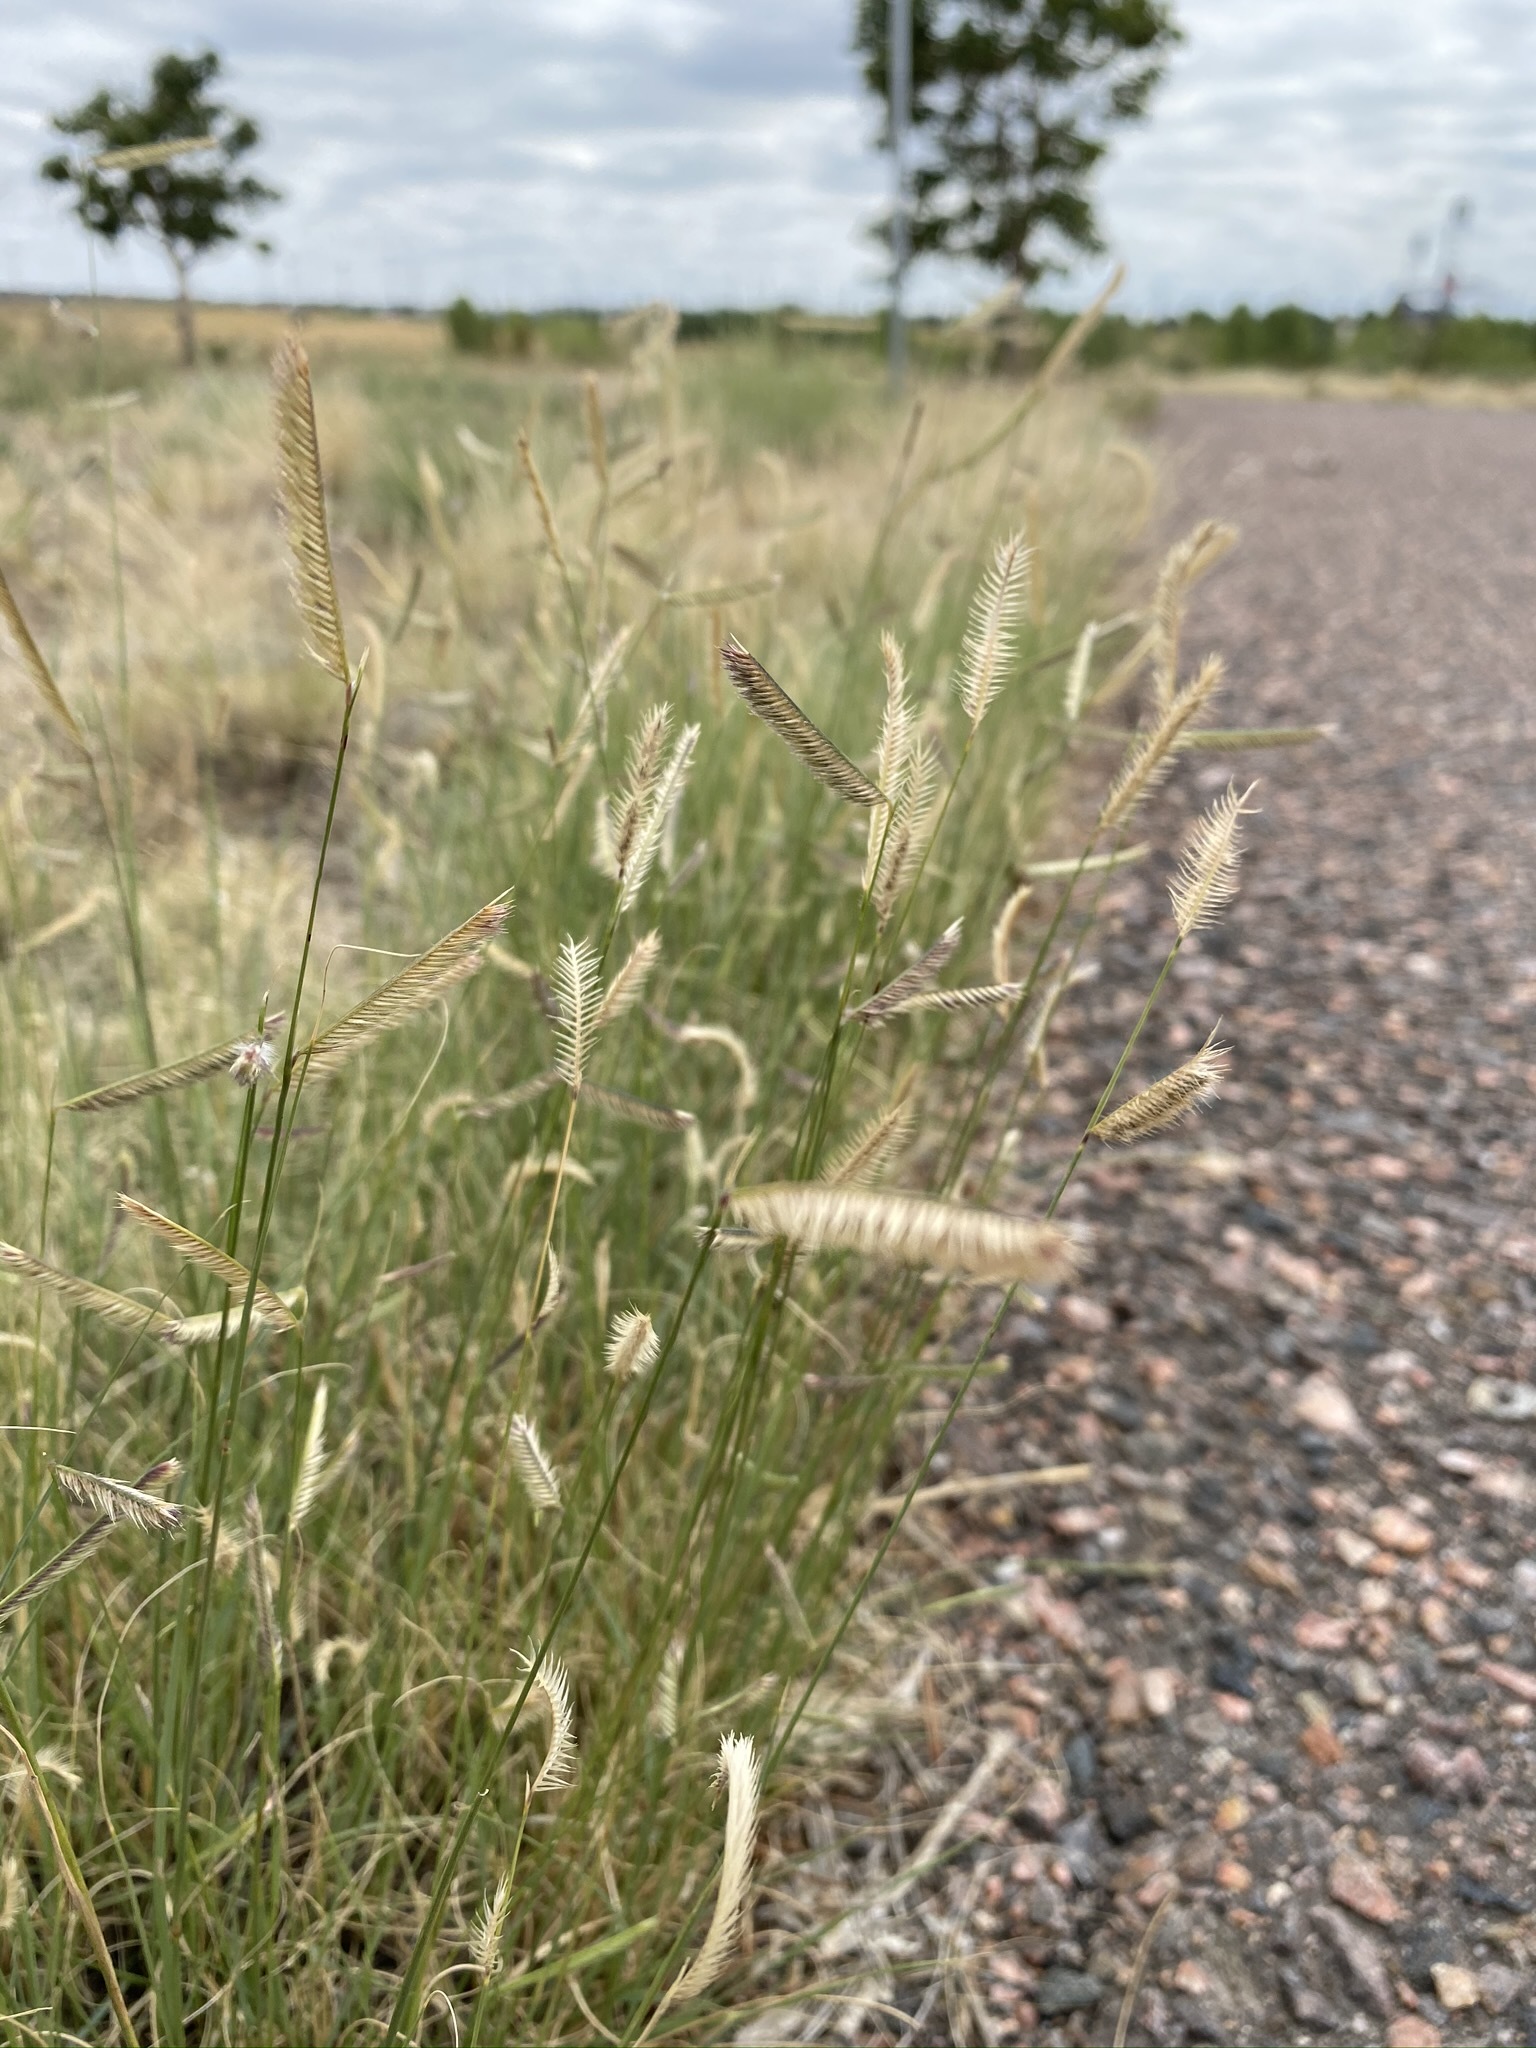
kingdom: Plantae
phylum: Tracheophyta
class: Liliopsida
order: Poales
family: Poaceae
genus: Bouteloua
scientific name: Bouteloua gracilis
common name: Blue grama
